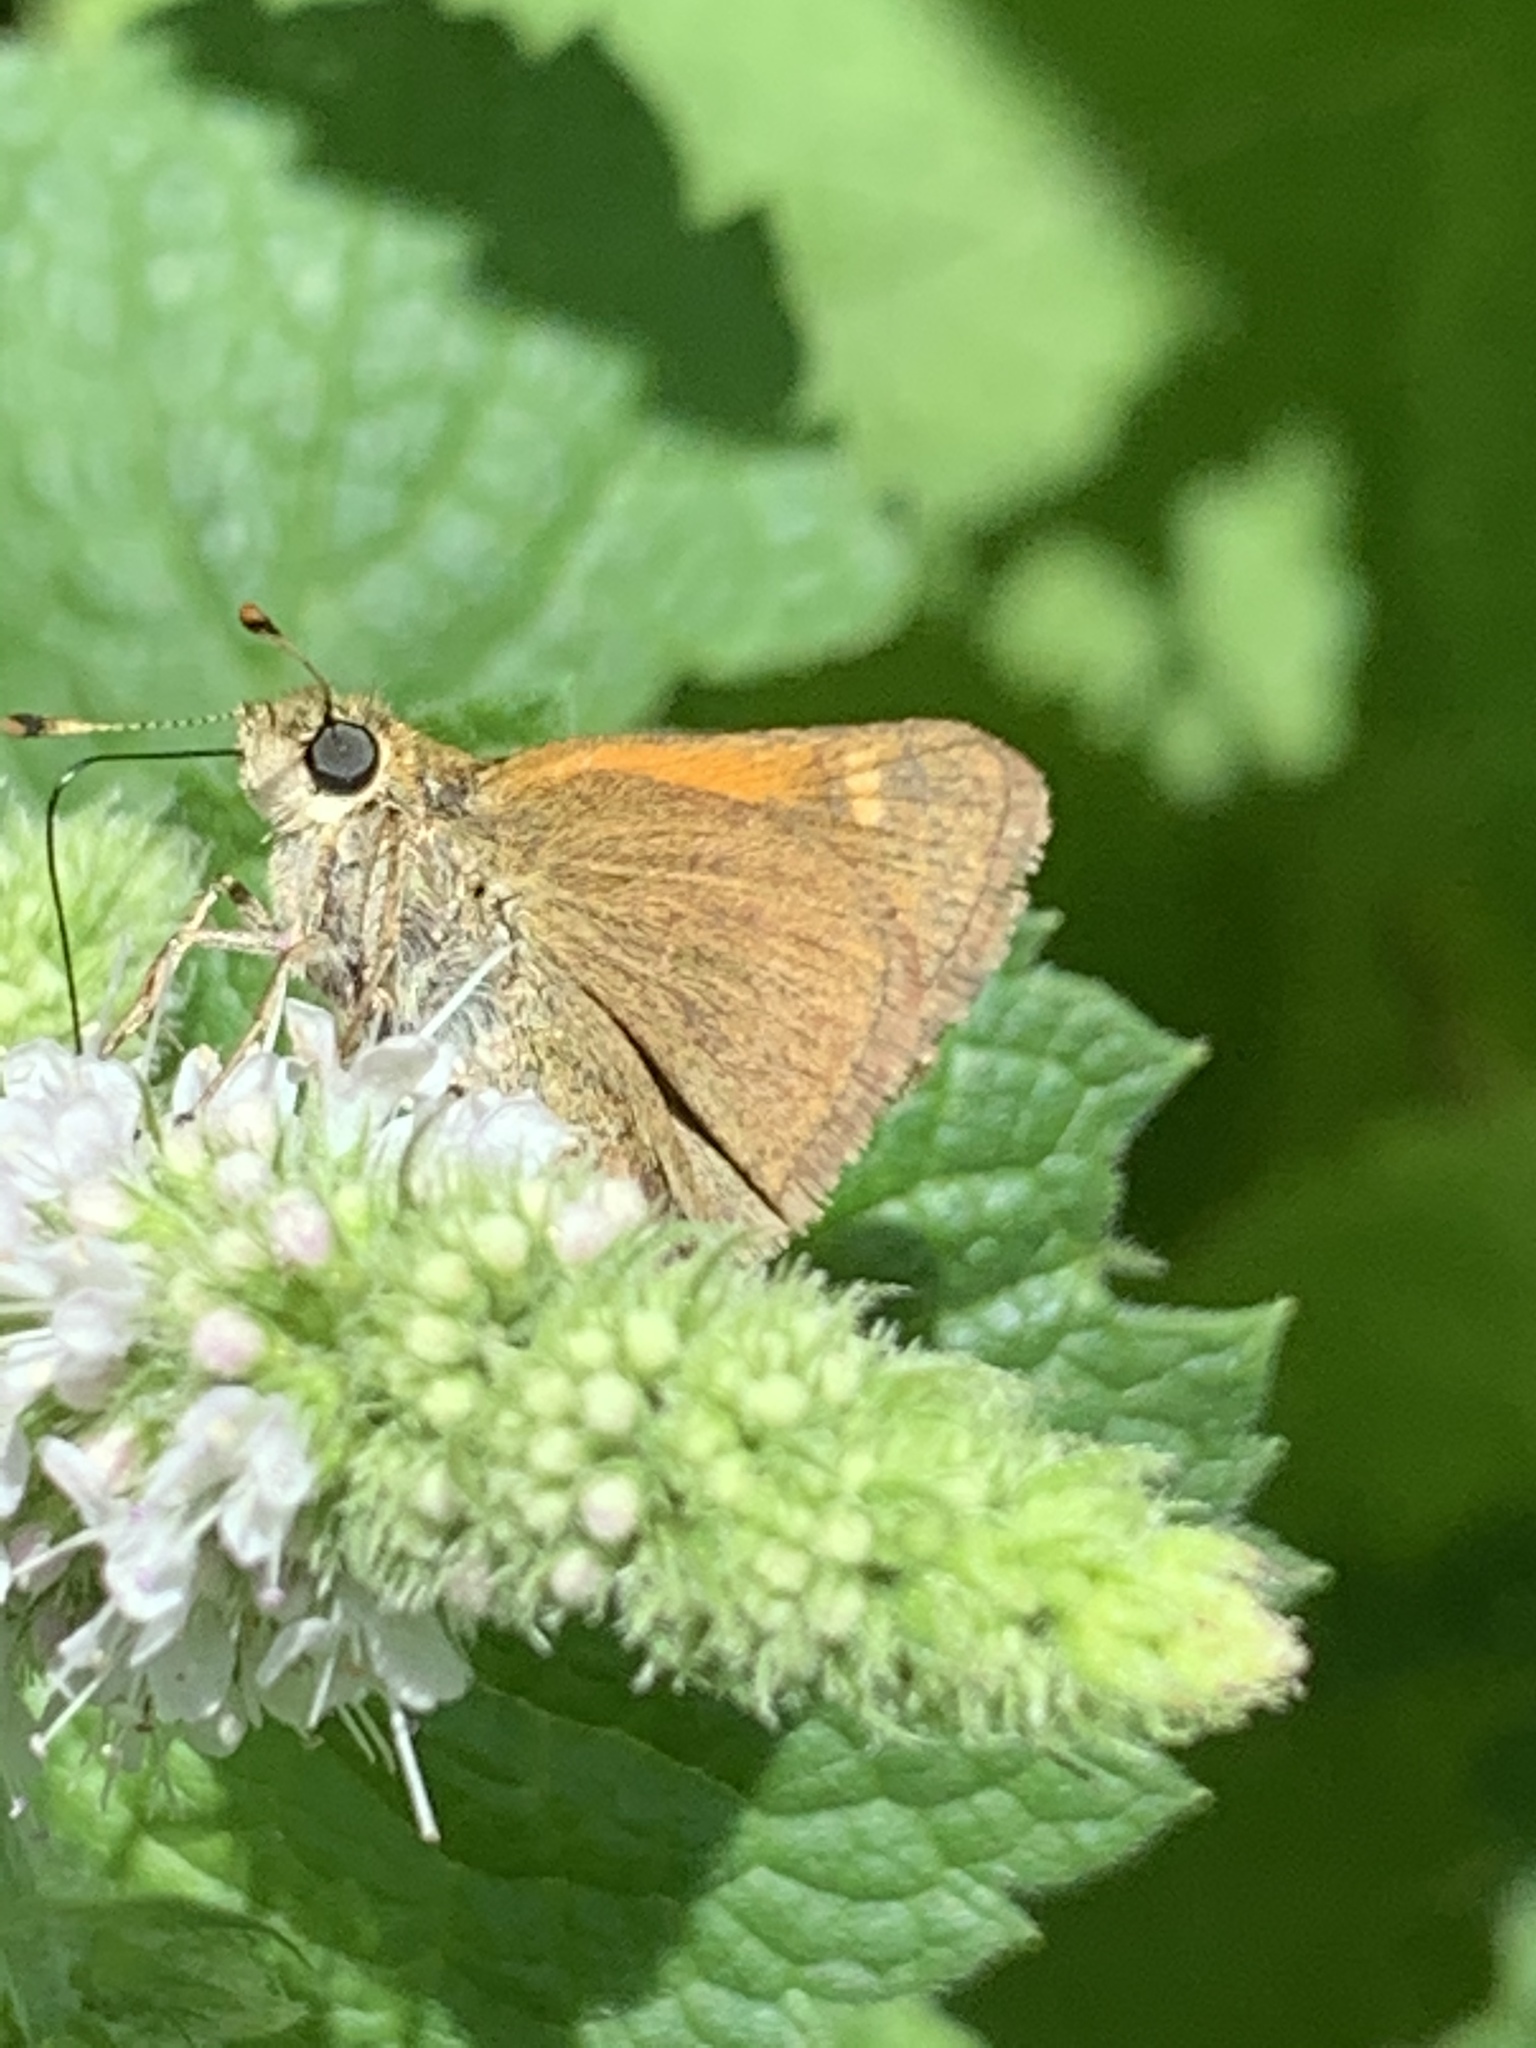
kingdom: Animalia
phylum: Arthropoda
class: Insecta
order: Lepidoptera
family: Hesperiidae
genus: Polites
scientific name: Polites themistocles
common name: Tawny-edged skipper
